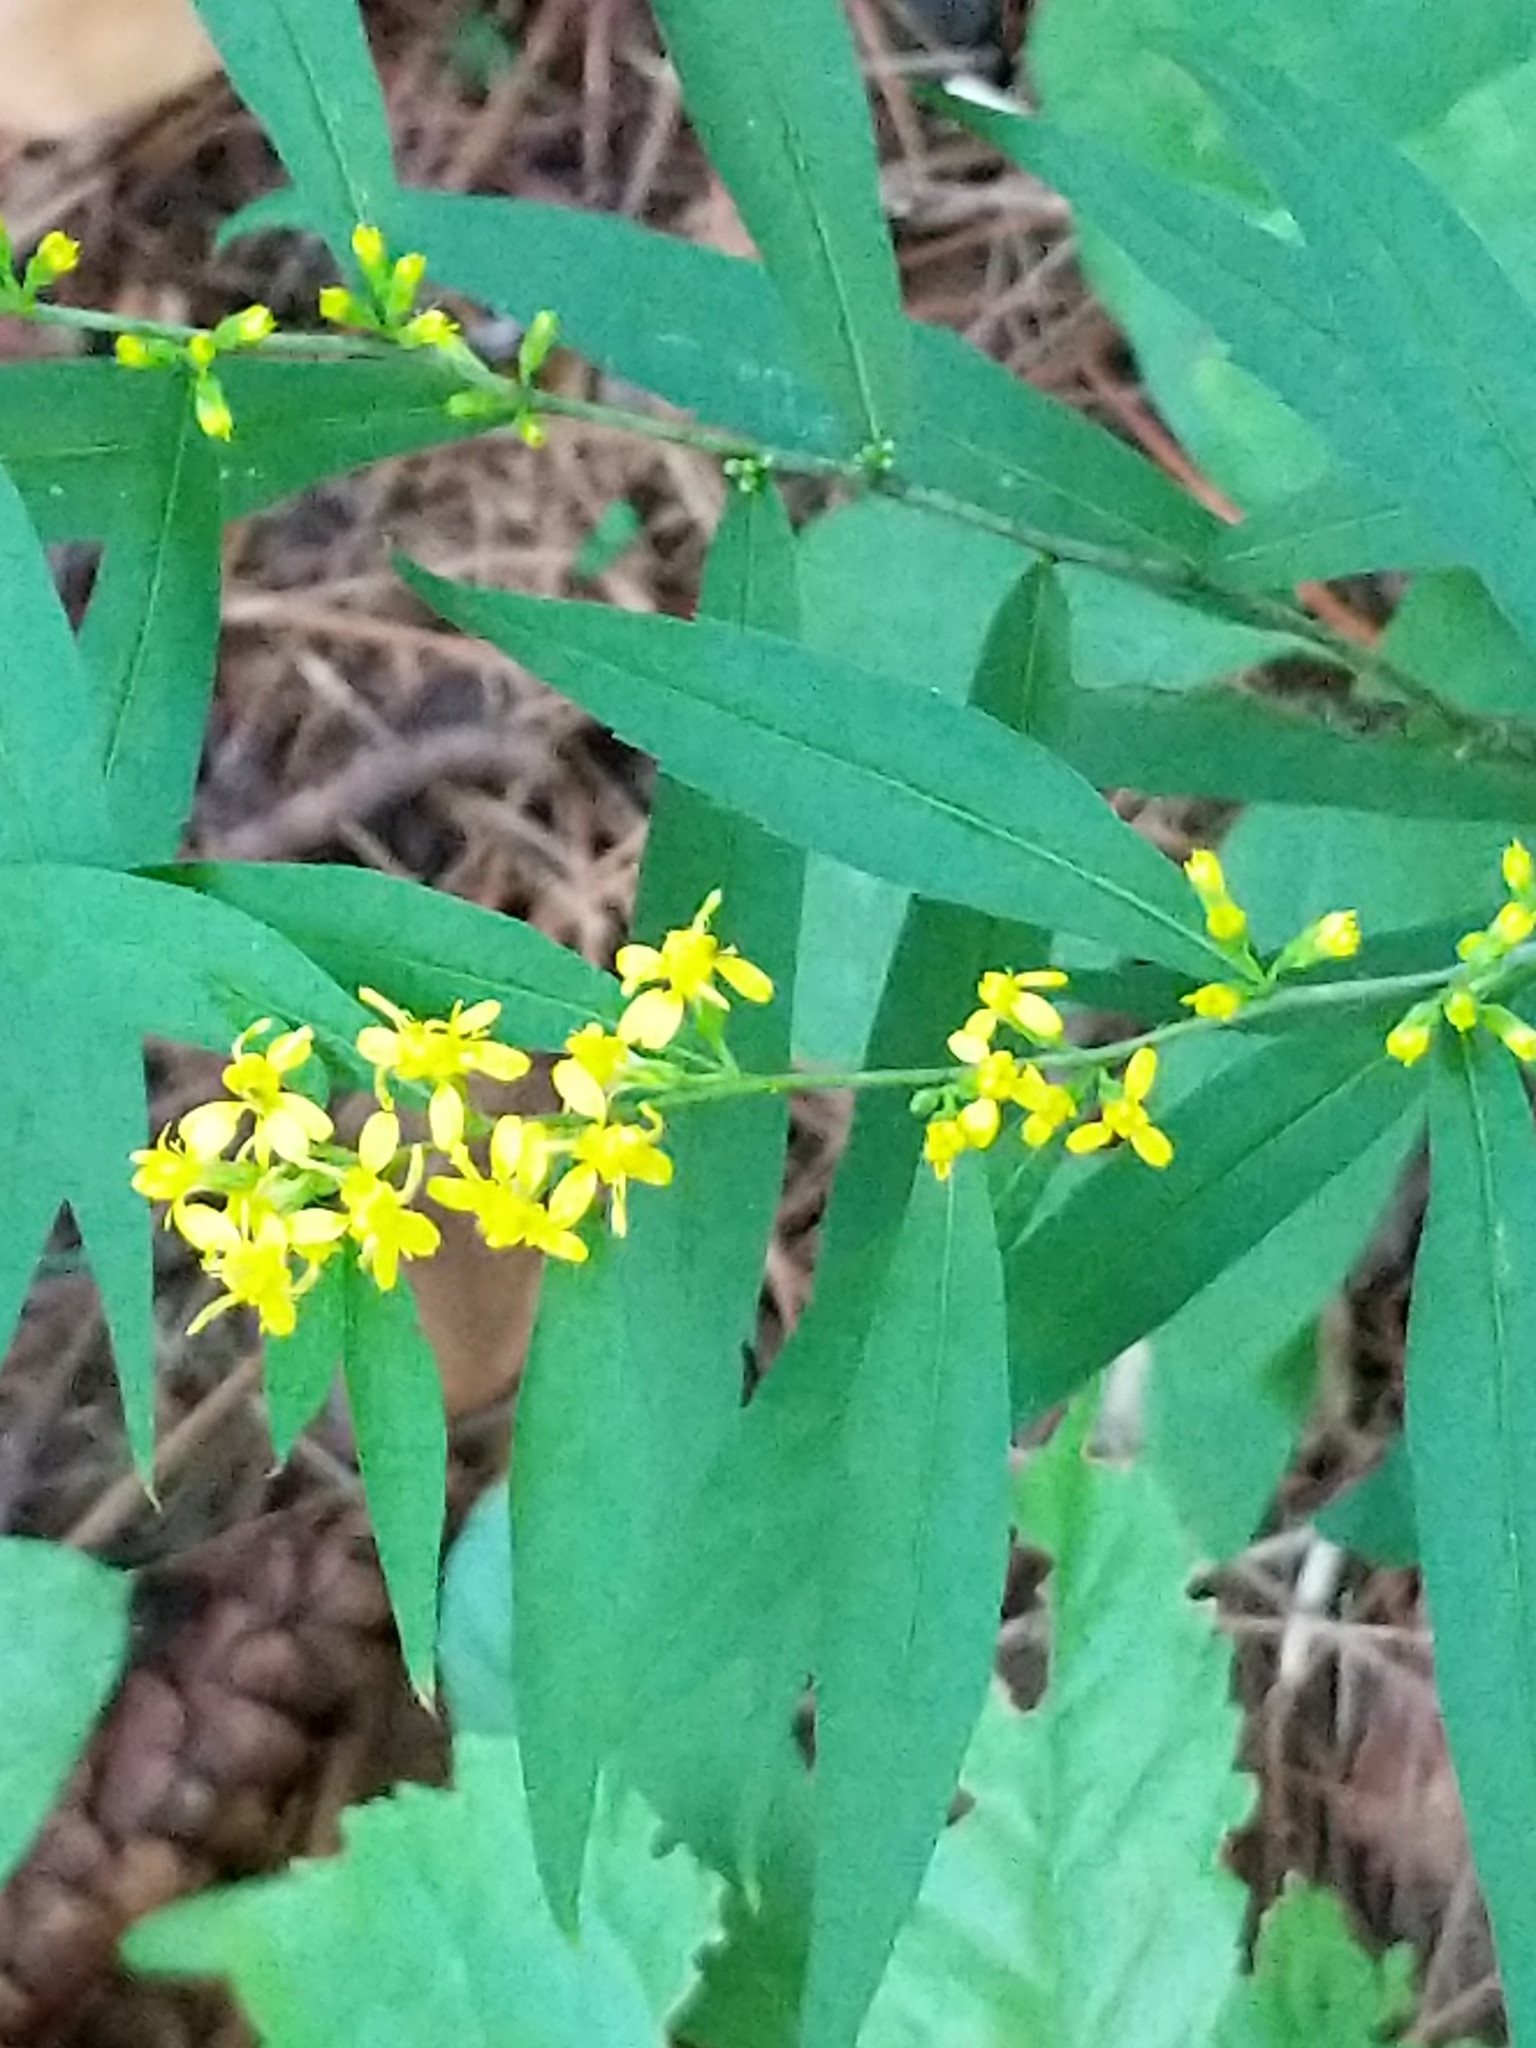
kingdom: Plantae
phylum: Tracheophyta
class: Magnoliopsida
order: Asterales
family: Asteraceae
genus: Solidago
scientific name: Solidago caesia
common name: Woodland goldenrod
